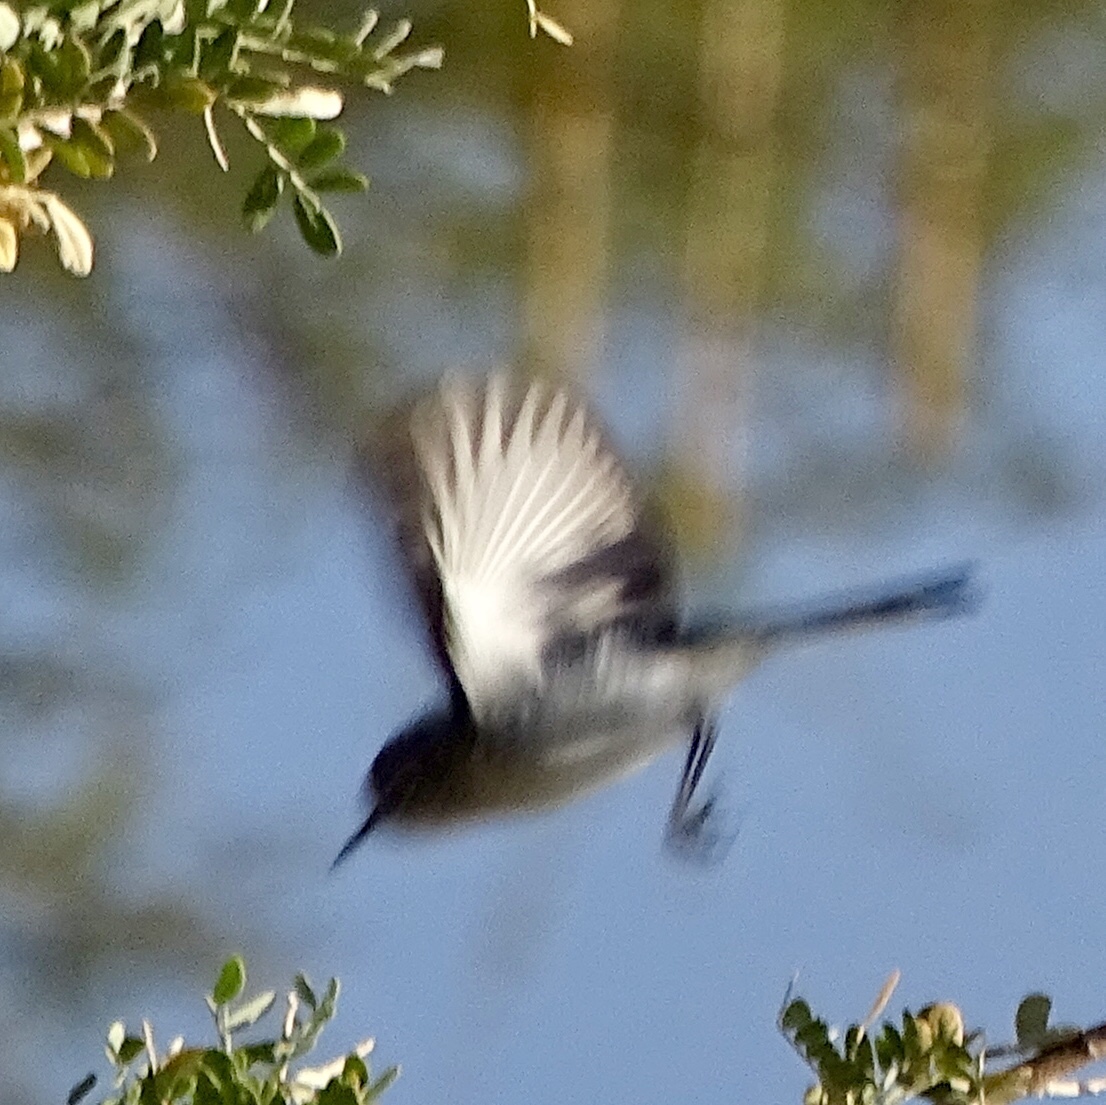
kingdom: Animalia
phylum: Chordata
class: Aves
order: Passeriformes
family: Polioptilidae
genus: Polioptila
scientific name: Polioptila
